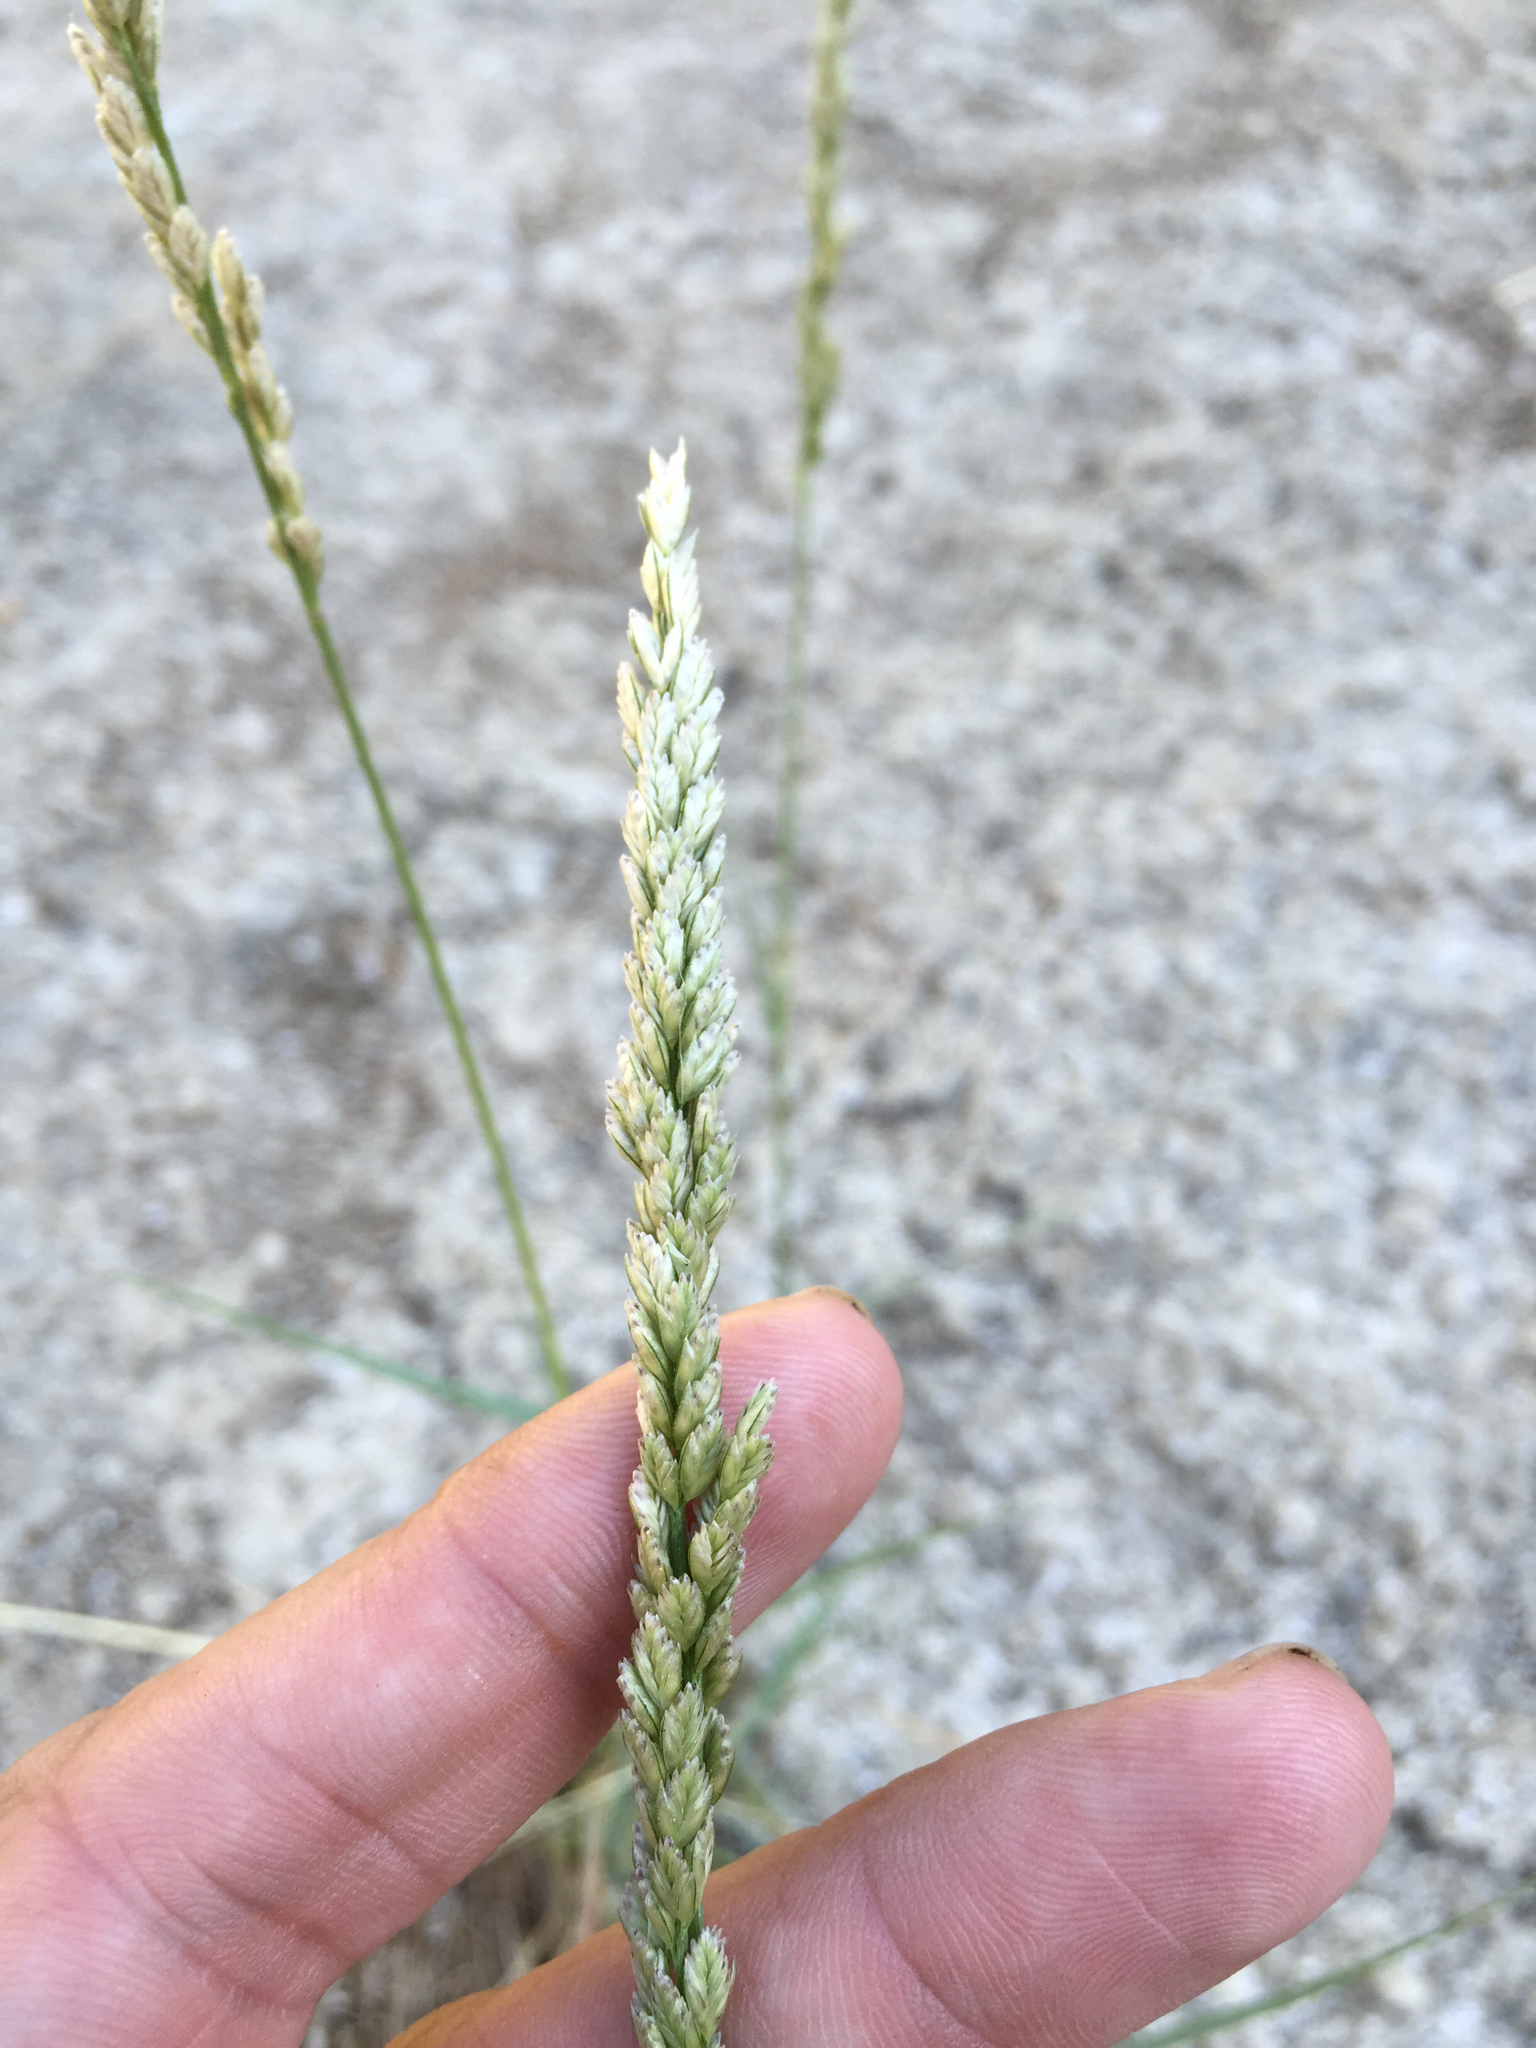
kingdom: Plantae
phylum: Tracheophyta
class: Liliopsida
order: Poales
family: Poaceae
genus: Tridens
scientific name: Tridens albescens
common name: White tridens
